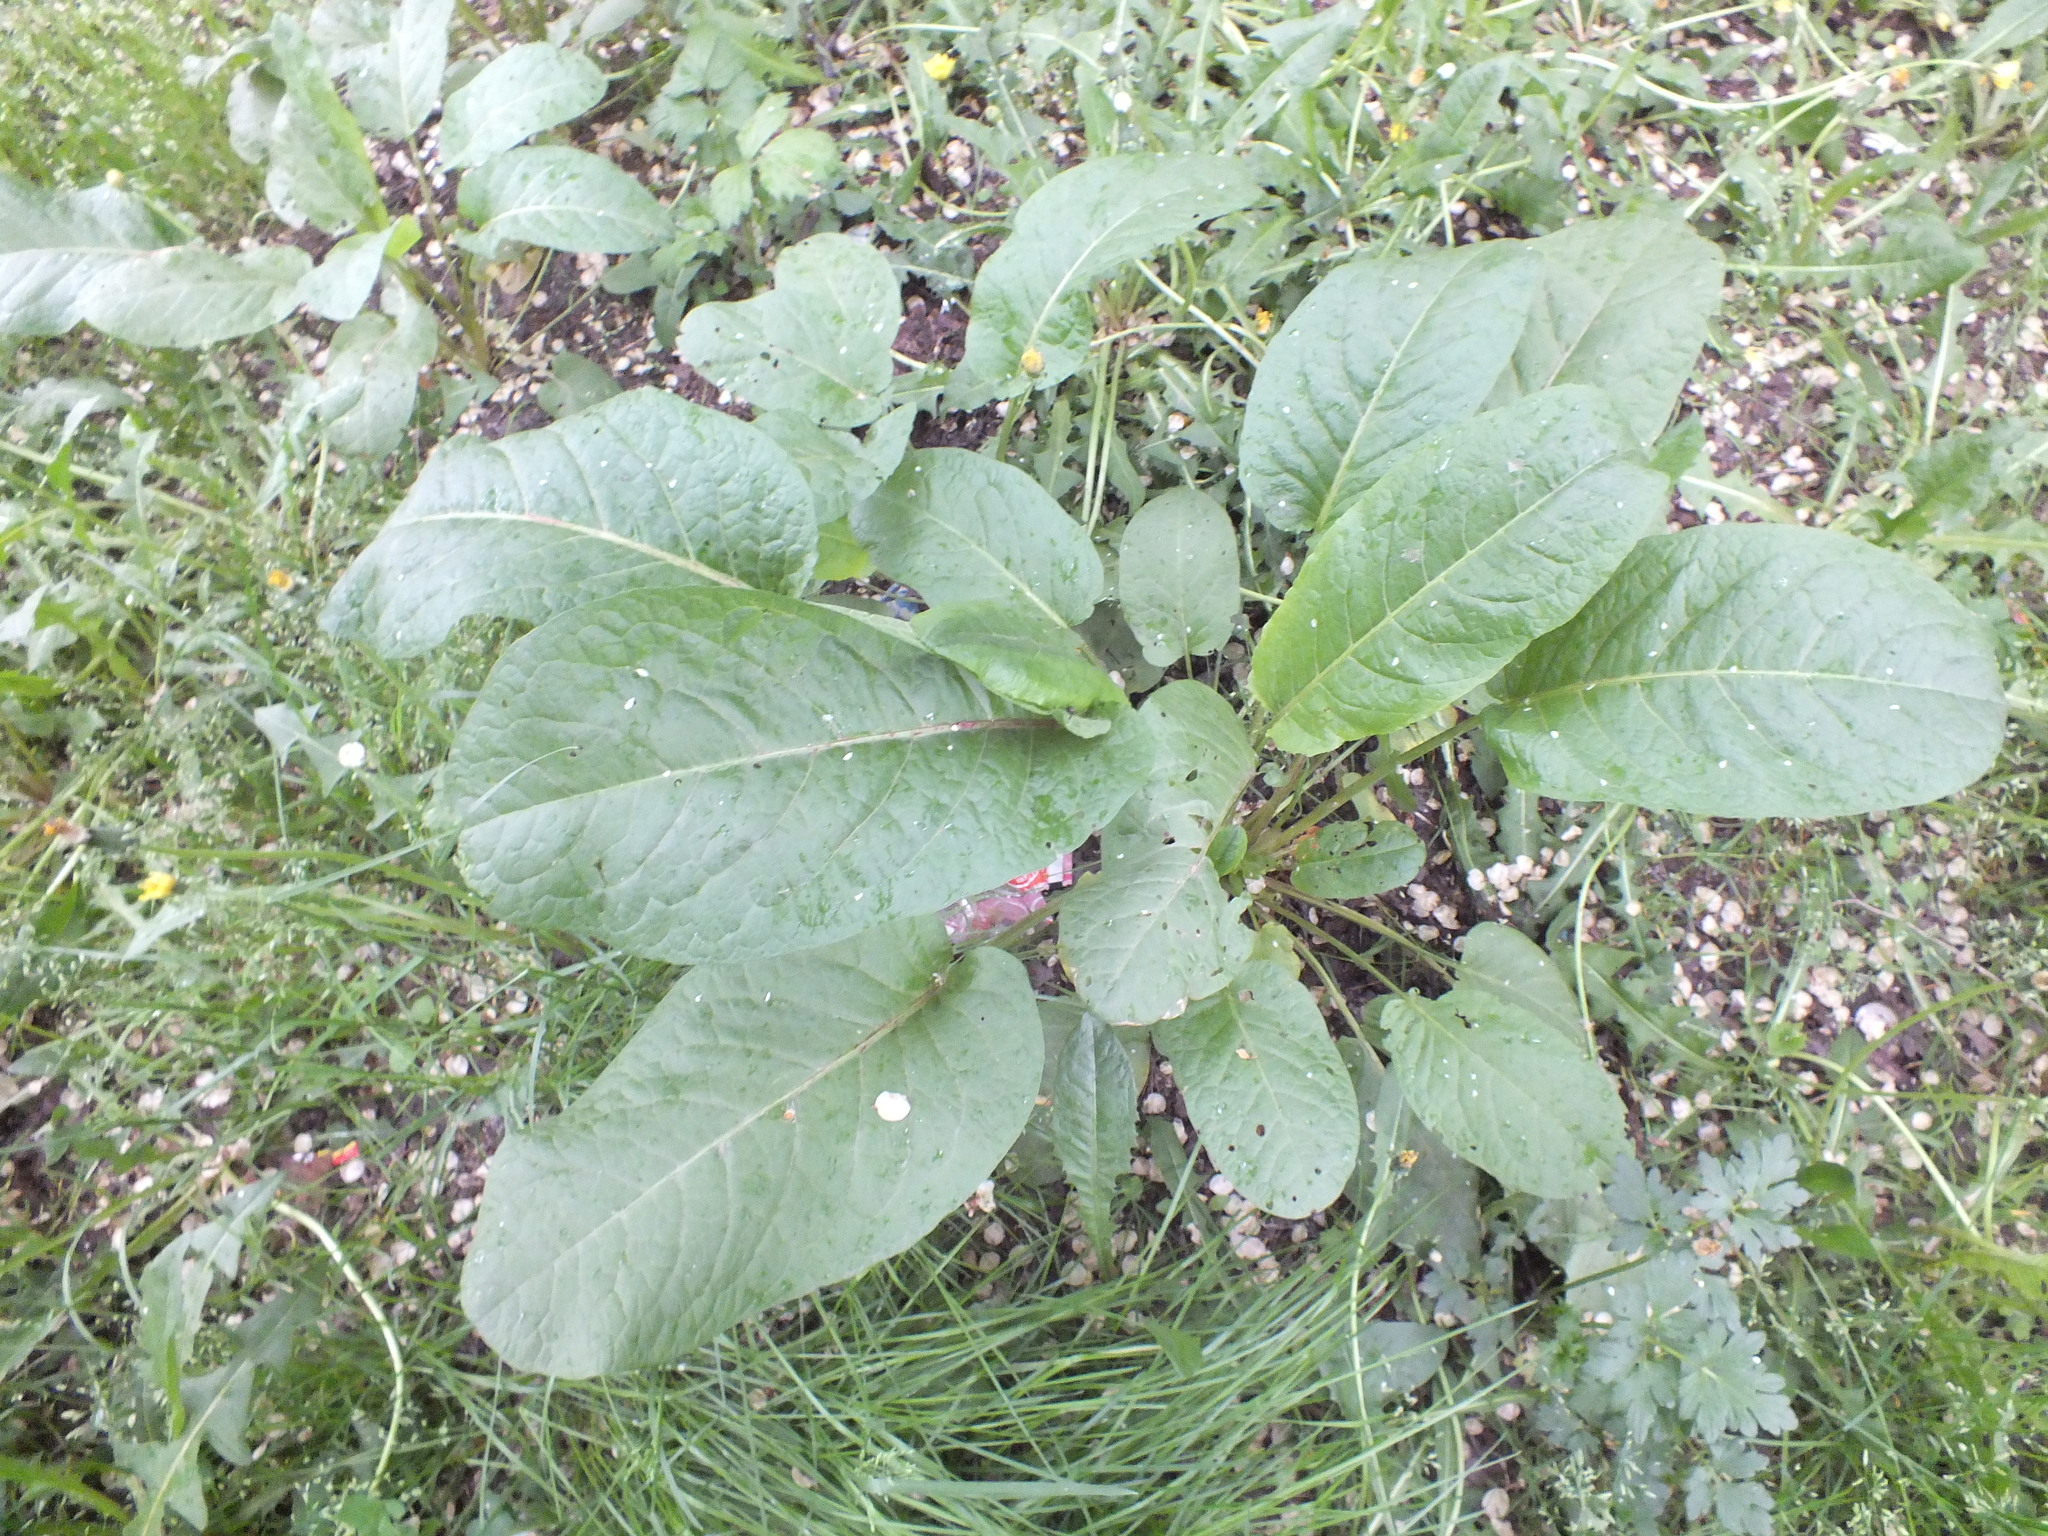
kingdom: Plantae
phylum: Tracheophyta
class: Magnoliopsida
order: Caryophyllales
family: Polygonaceae
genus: Rumex
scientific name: Rumex obtusifolius
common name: Bitter dock
